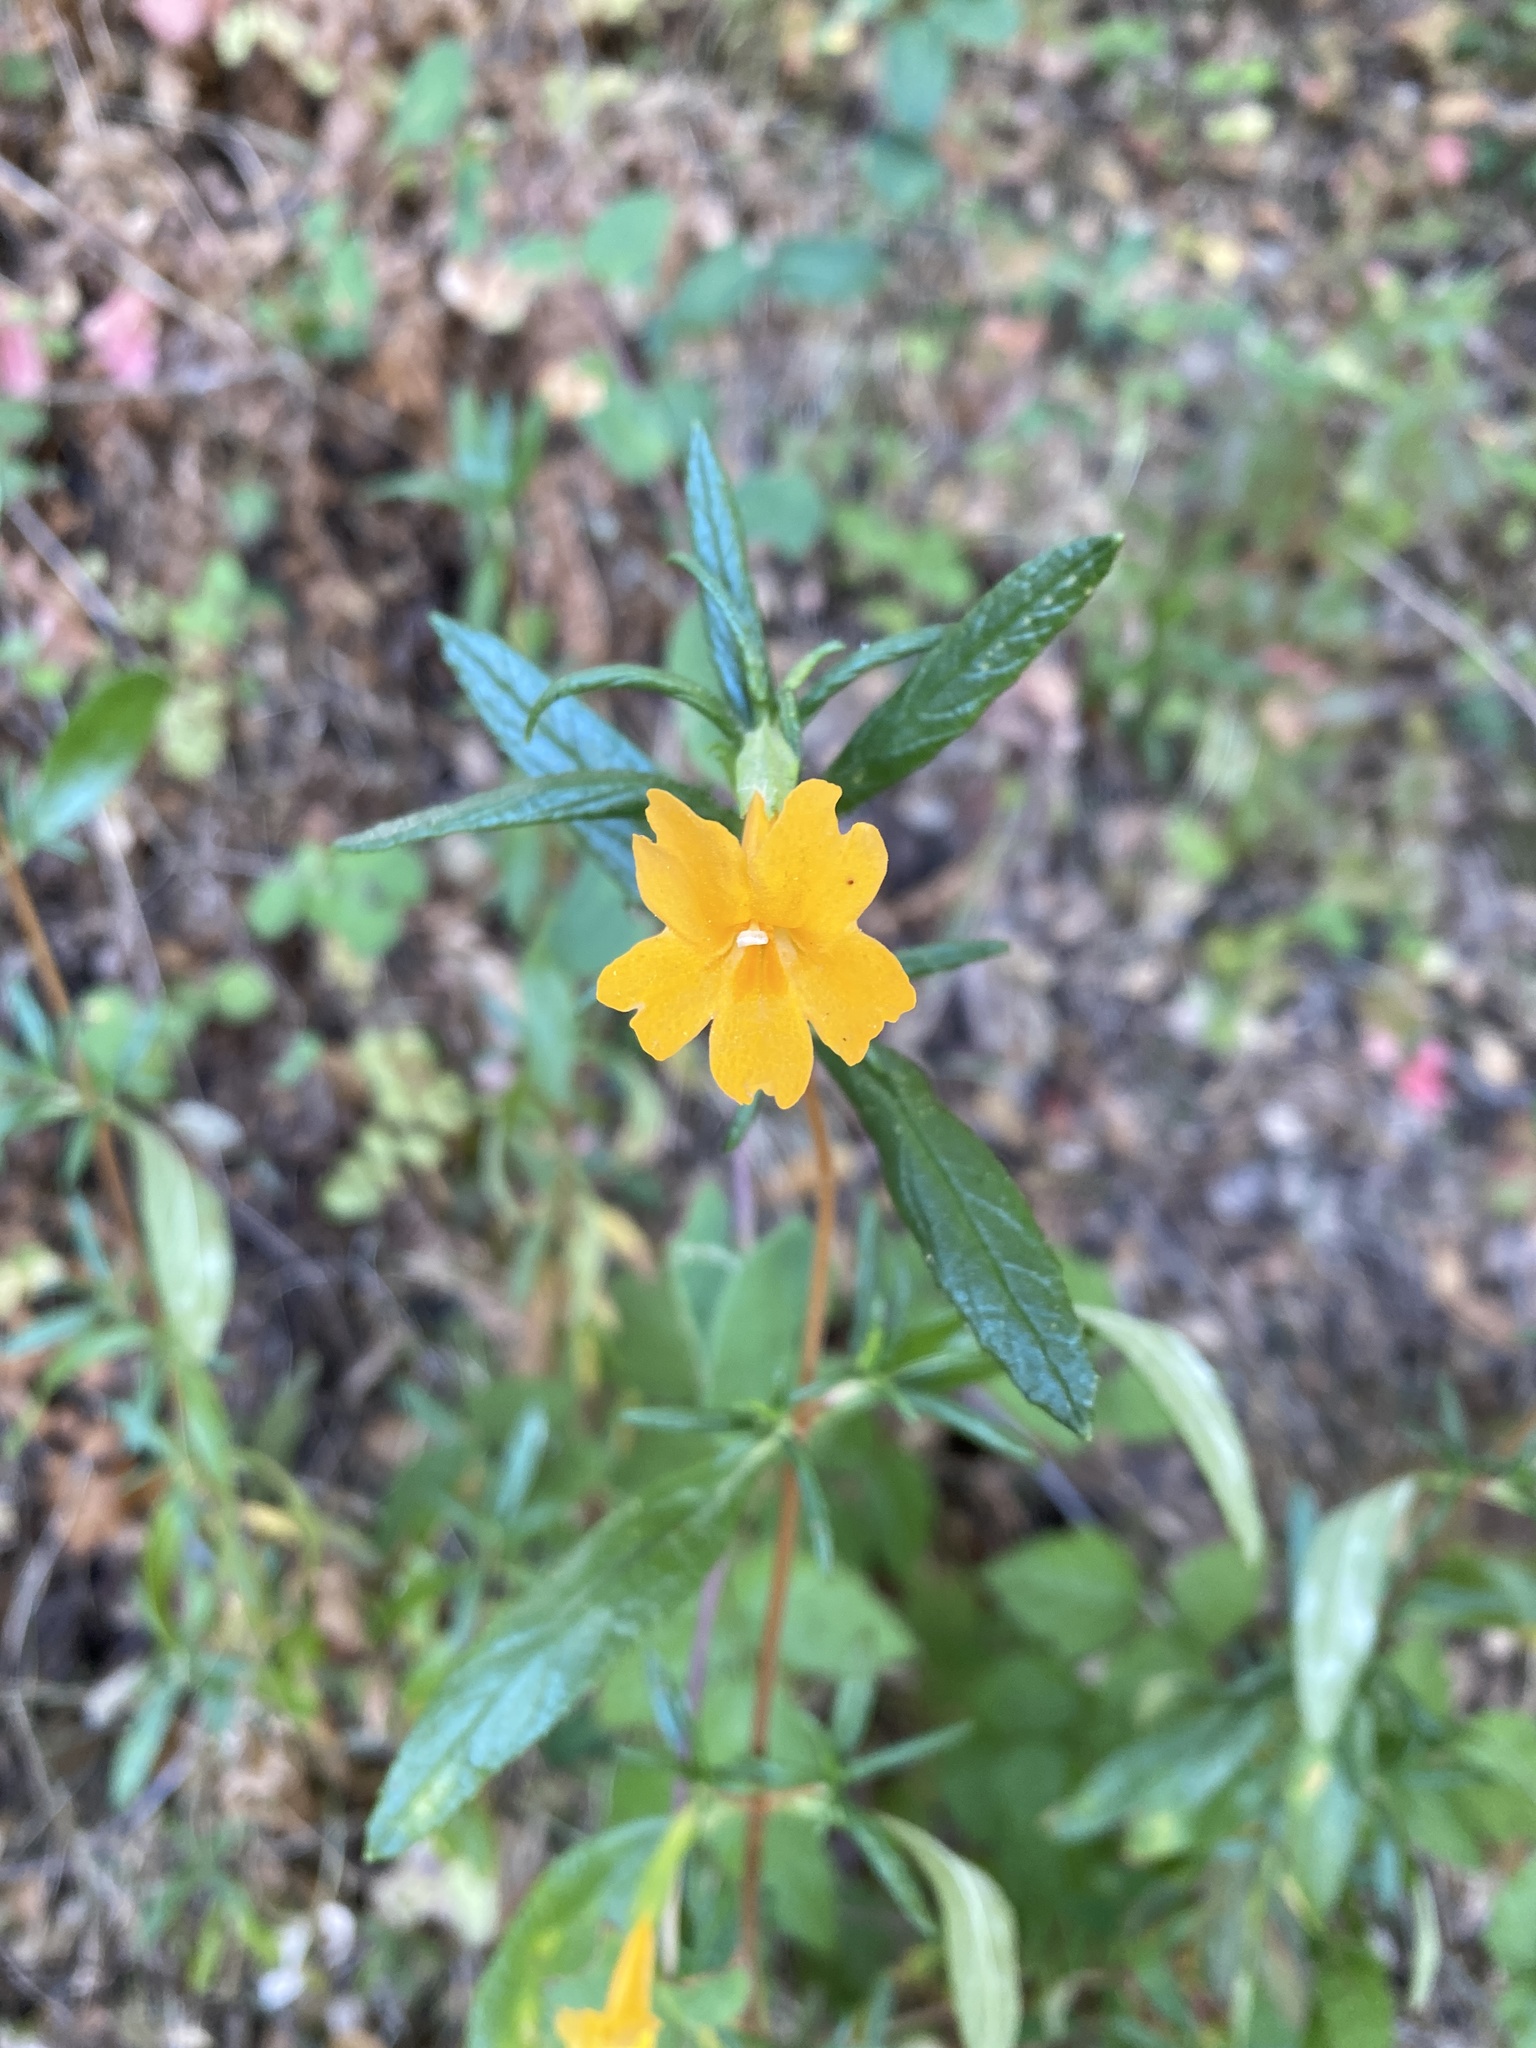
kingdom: Plantae
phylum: Tracheophyta
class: Magnoliopsida
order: Lamiales
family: Phrymaceae
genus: Diplacus
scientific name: Diplacus aurantiacus
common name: Bush monkey-flower
